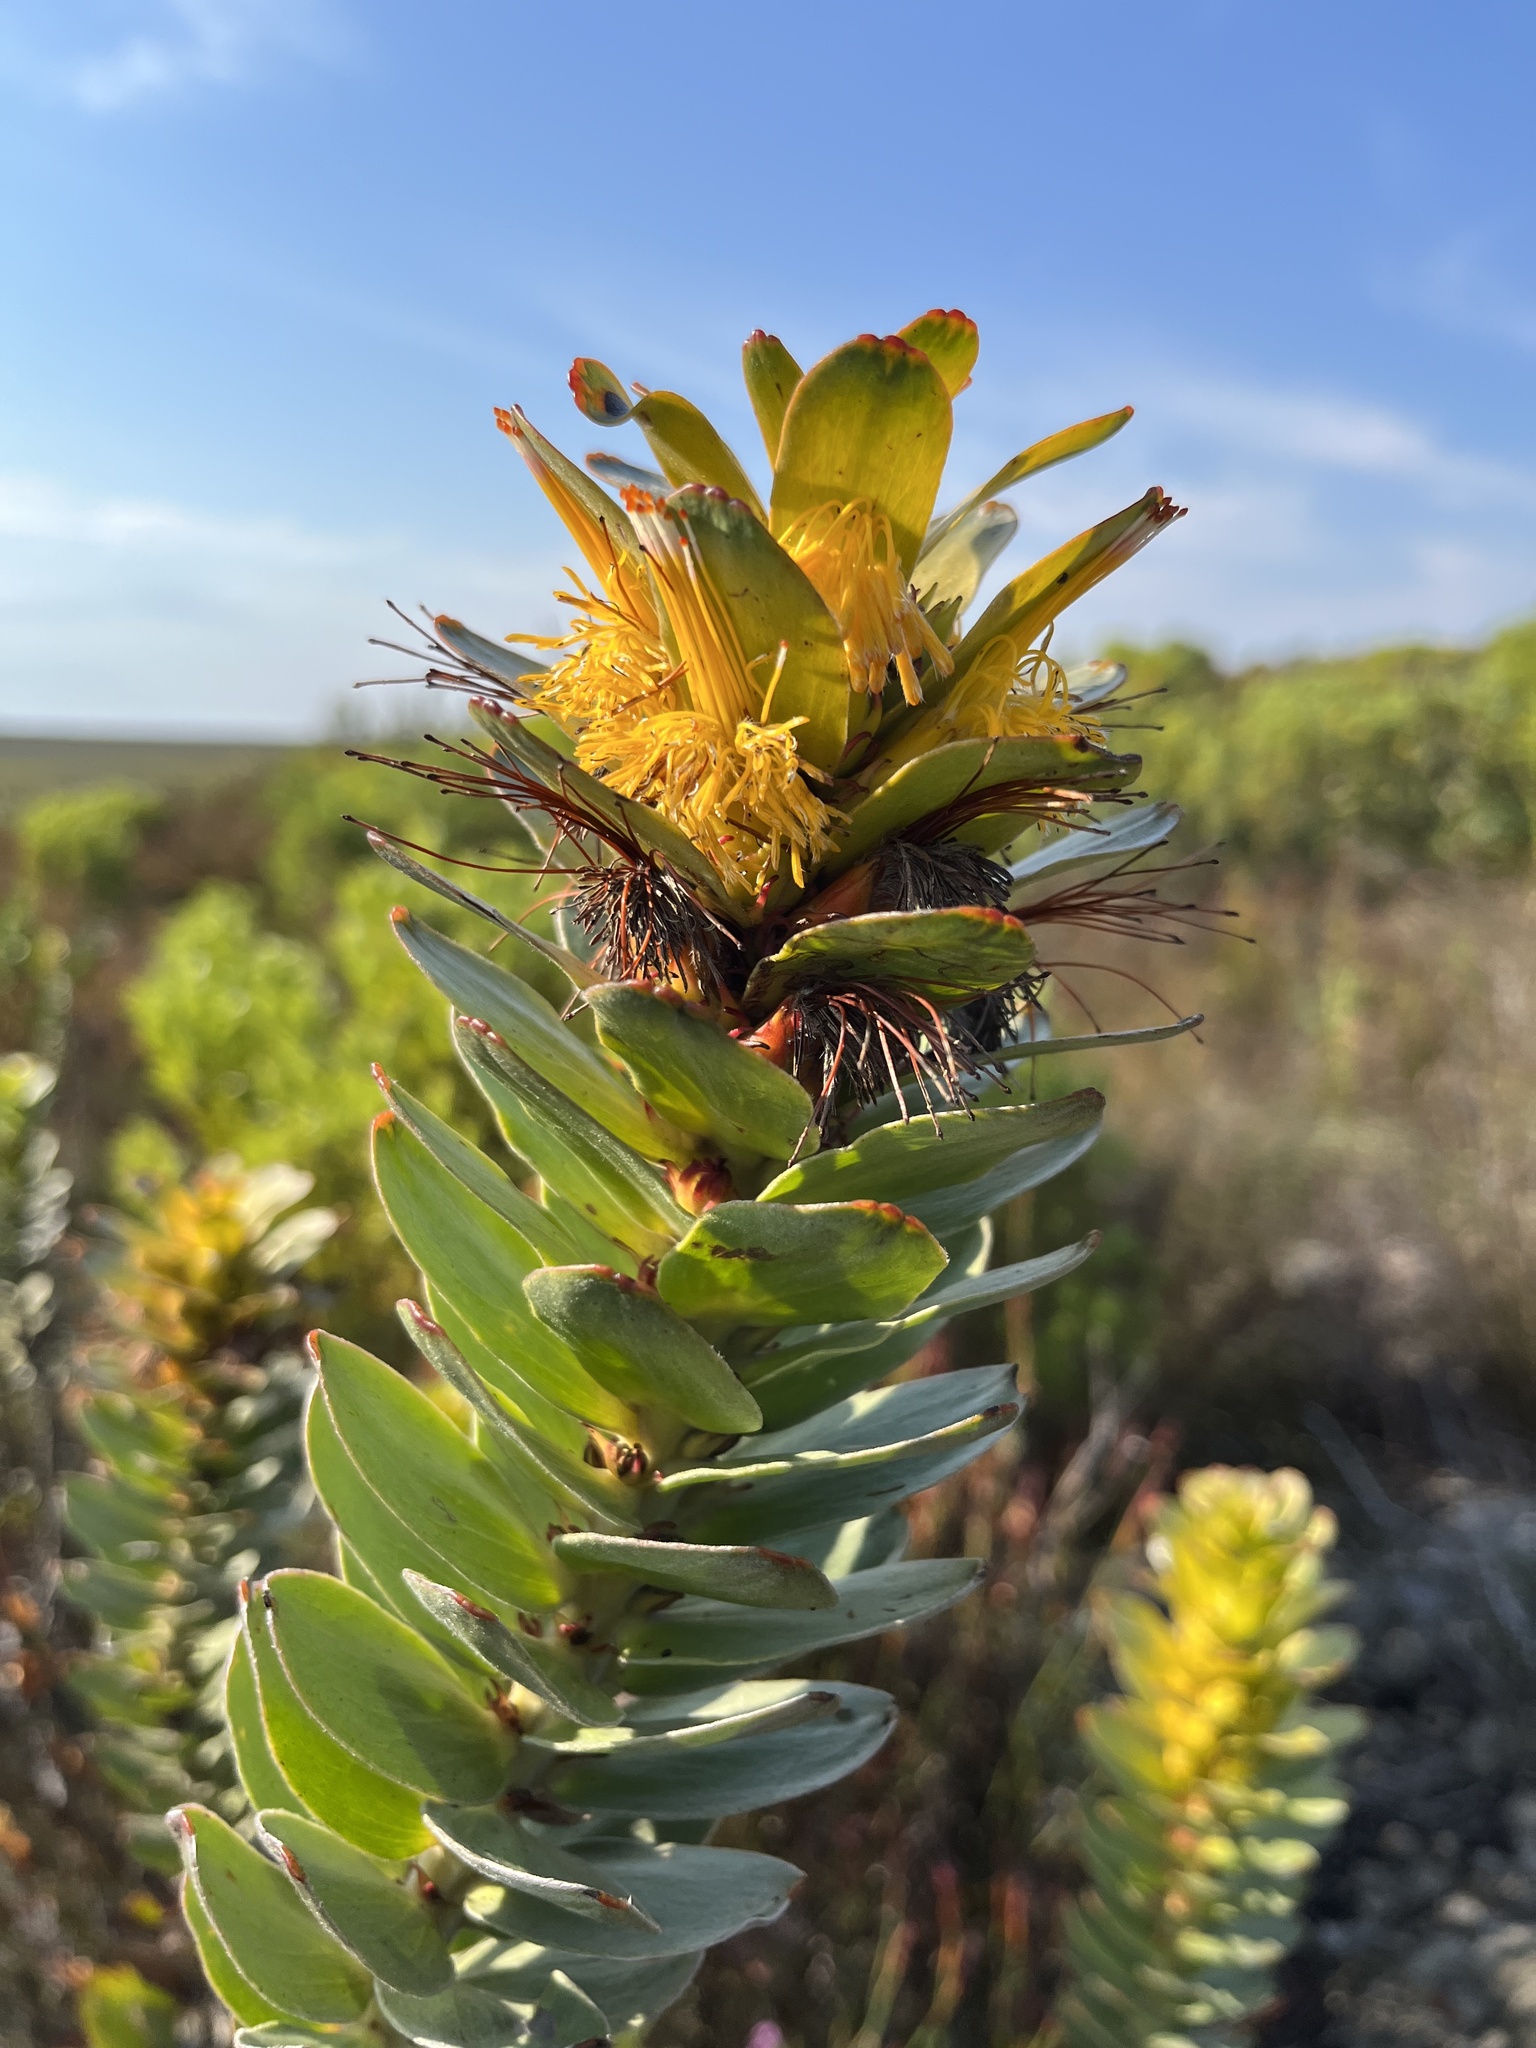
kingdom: Plantae
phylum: Tracheophyta
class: Magnoliopsida
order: Proteales
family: Proteaceae
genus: Mimetes
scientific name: Mimetes saxatilis
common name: Limestone pagoda
